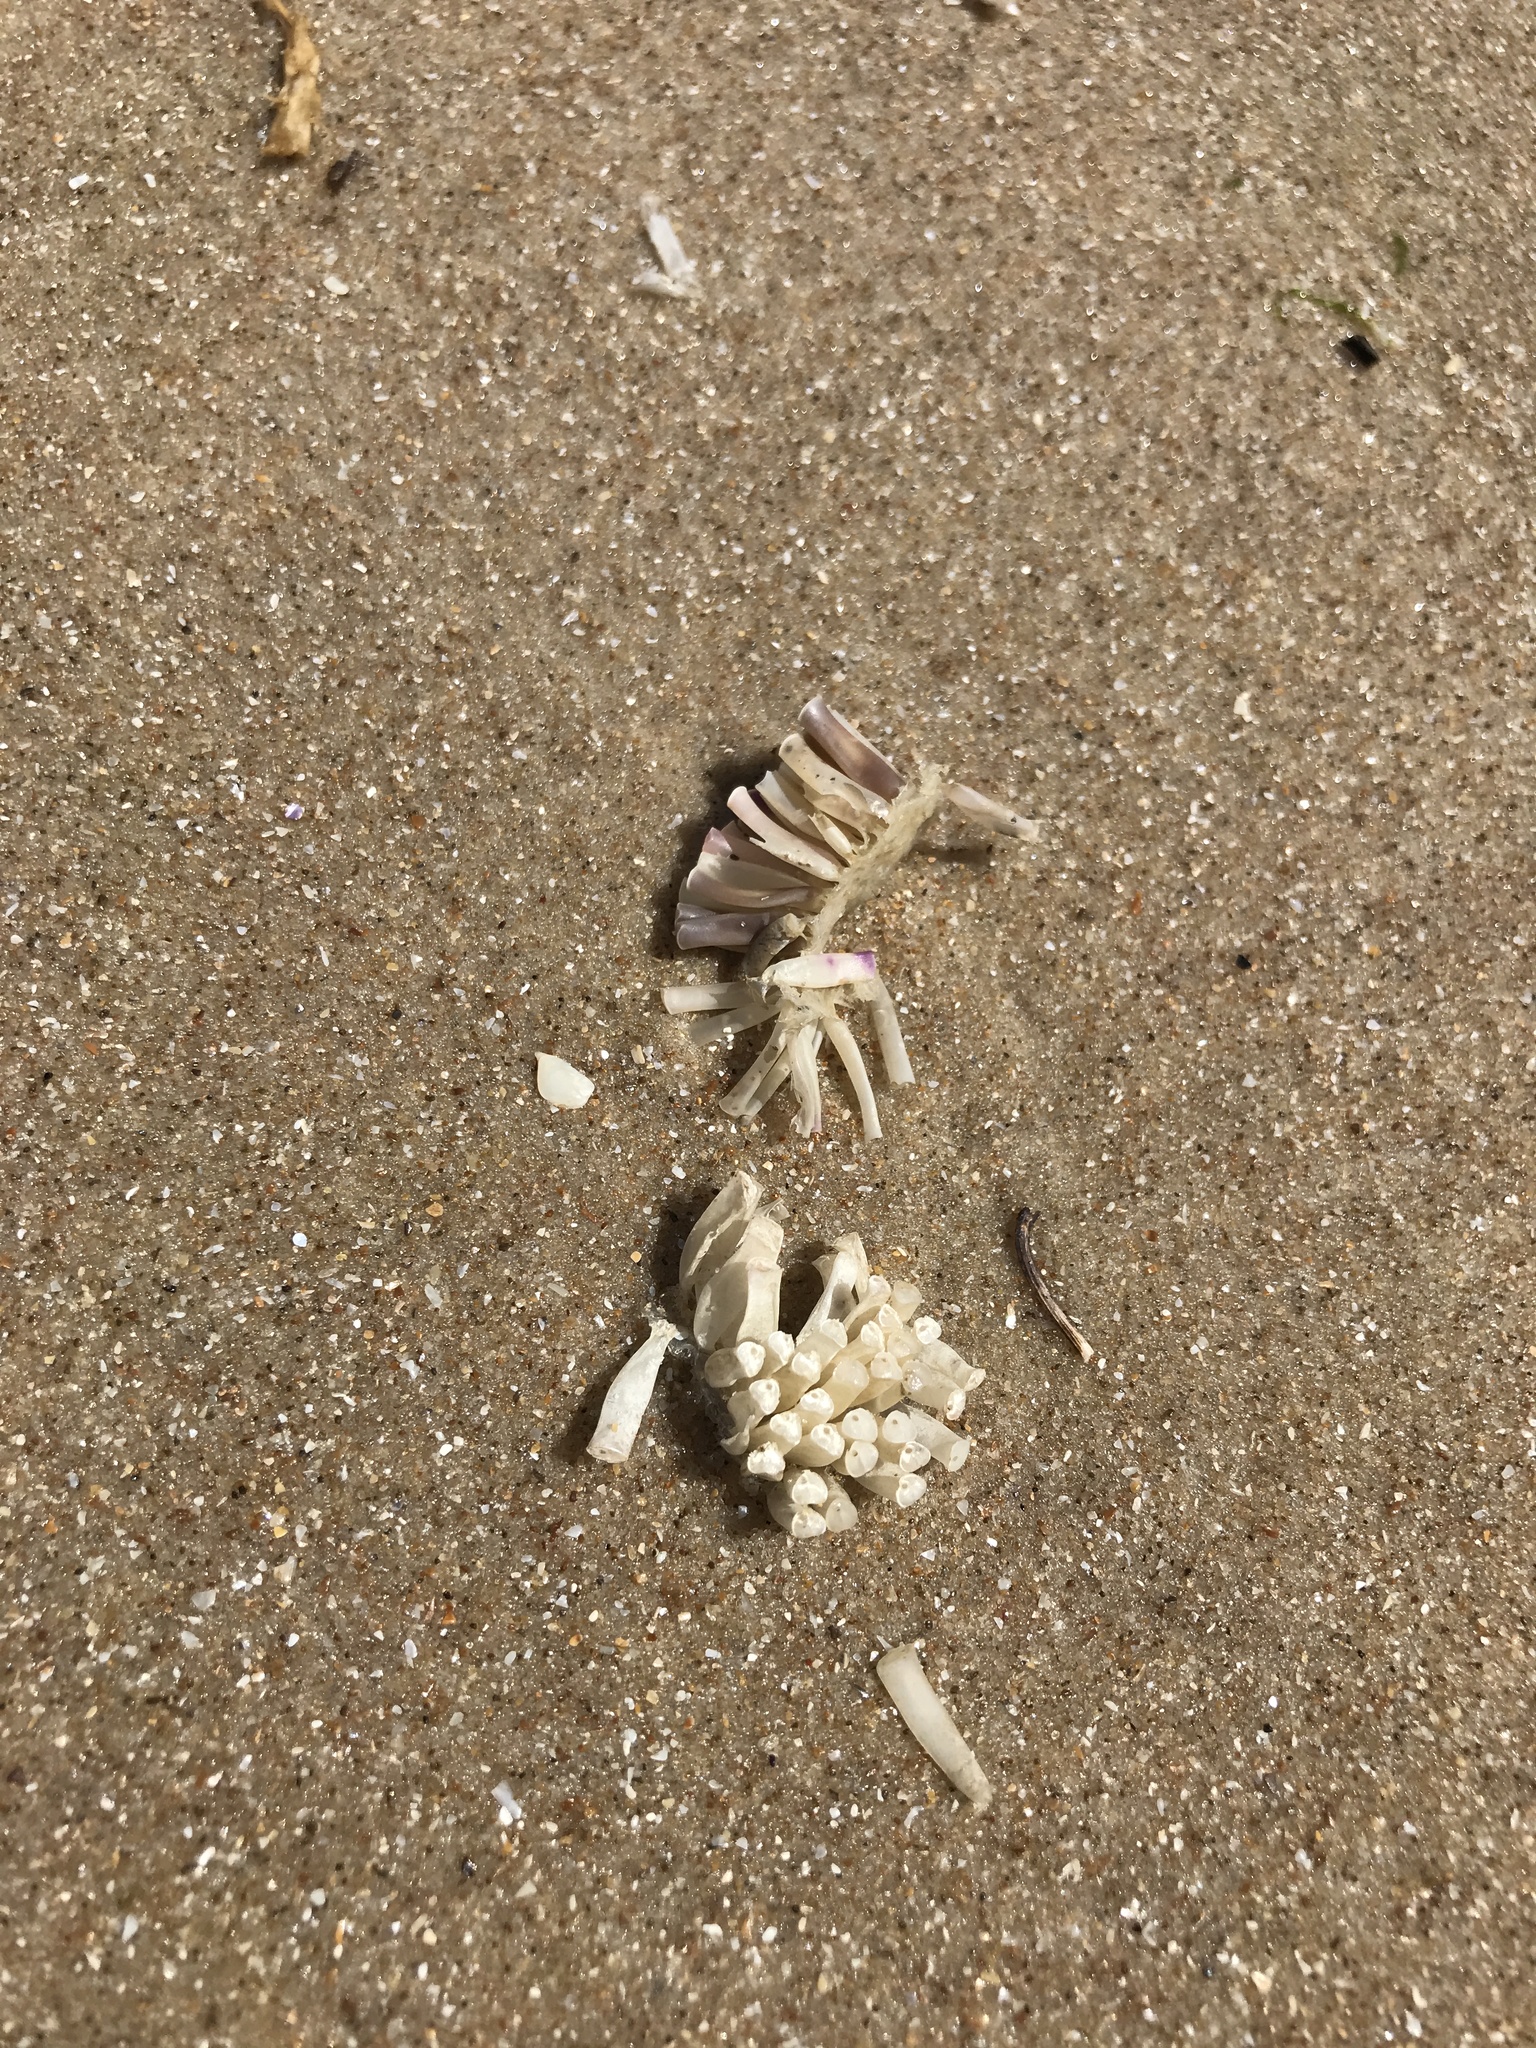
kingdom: Animalia
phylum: Mollusca
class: Gastropoda
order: Neogastropoda
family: Muricidae
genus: Rapana
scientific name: Rapana venosa
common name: Veined rapa whelk
